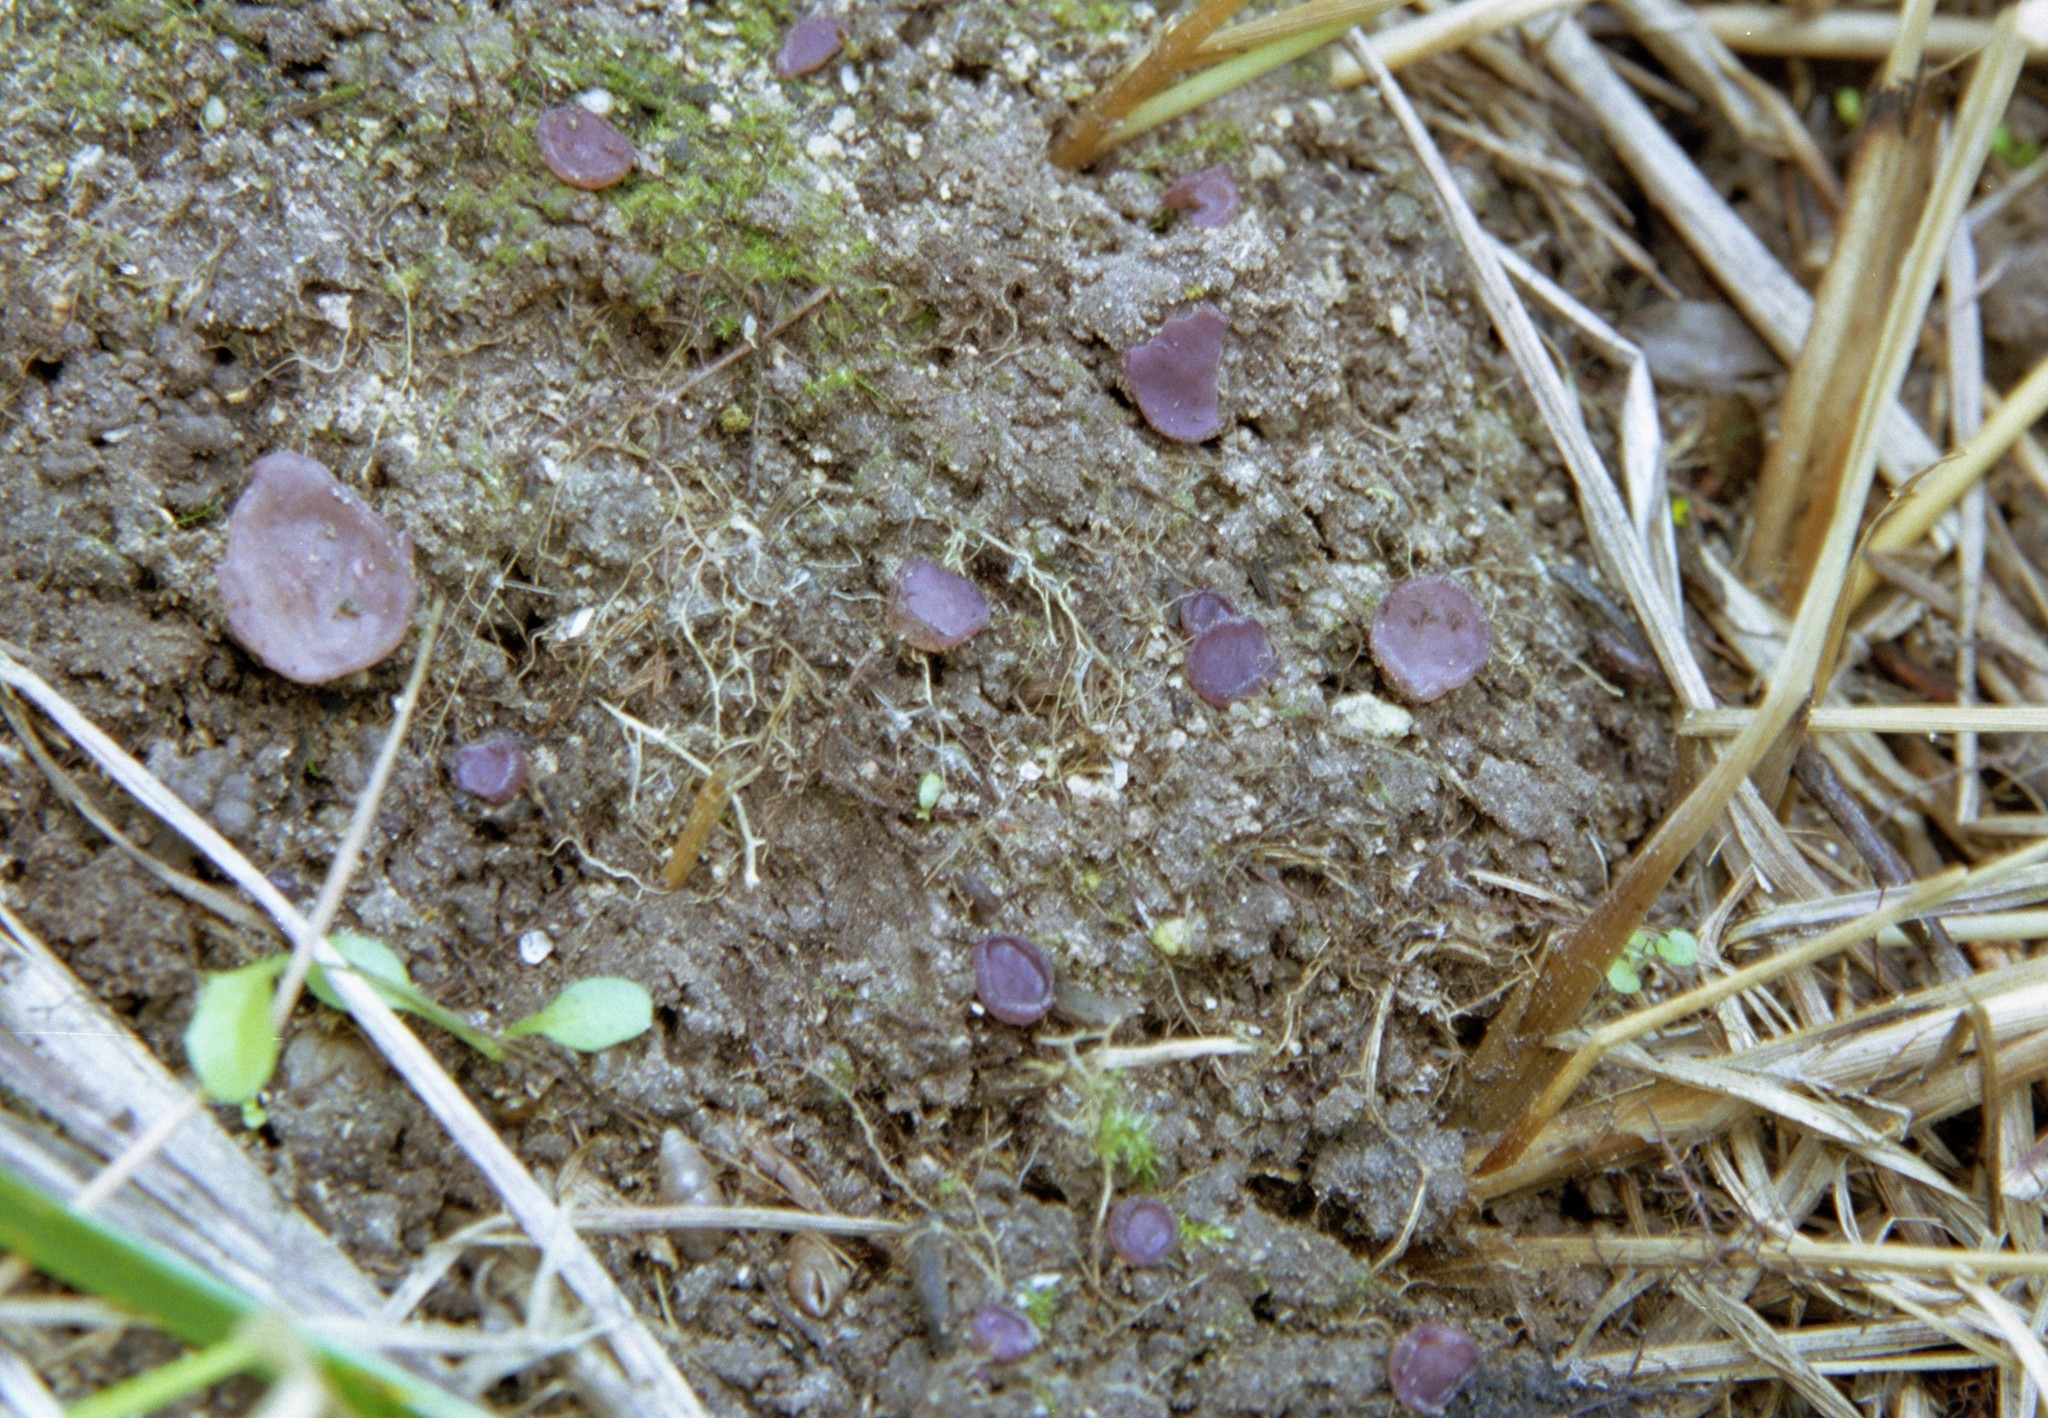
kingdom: Fungi
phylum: Ascomycota
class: Pezizomycetes
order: Pezizales
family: Pezizaceae
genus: Marcelleina
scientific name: Marcelleina persoonii
